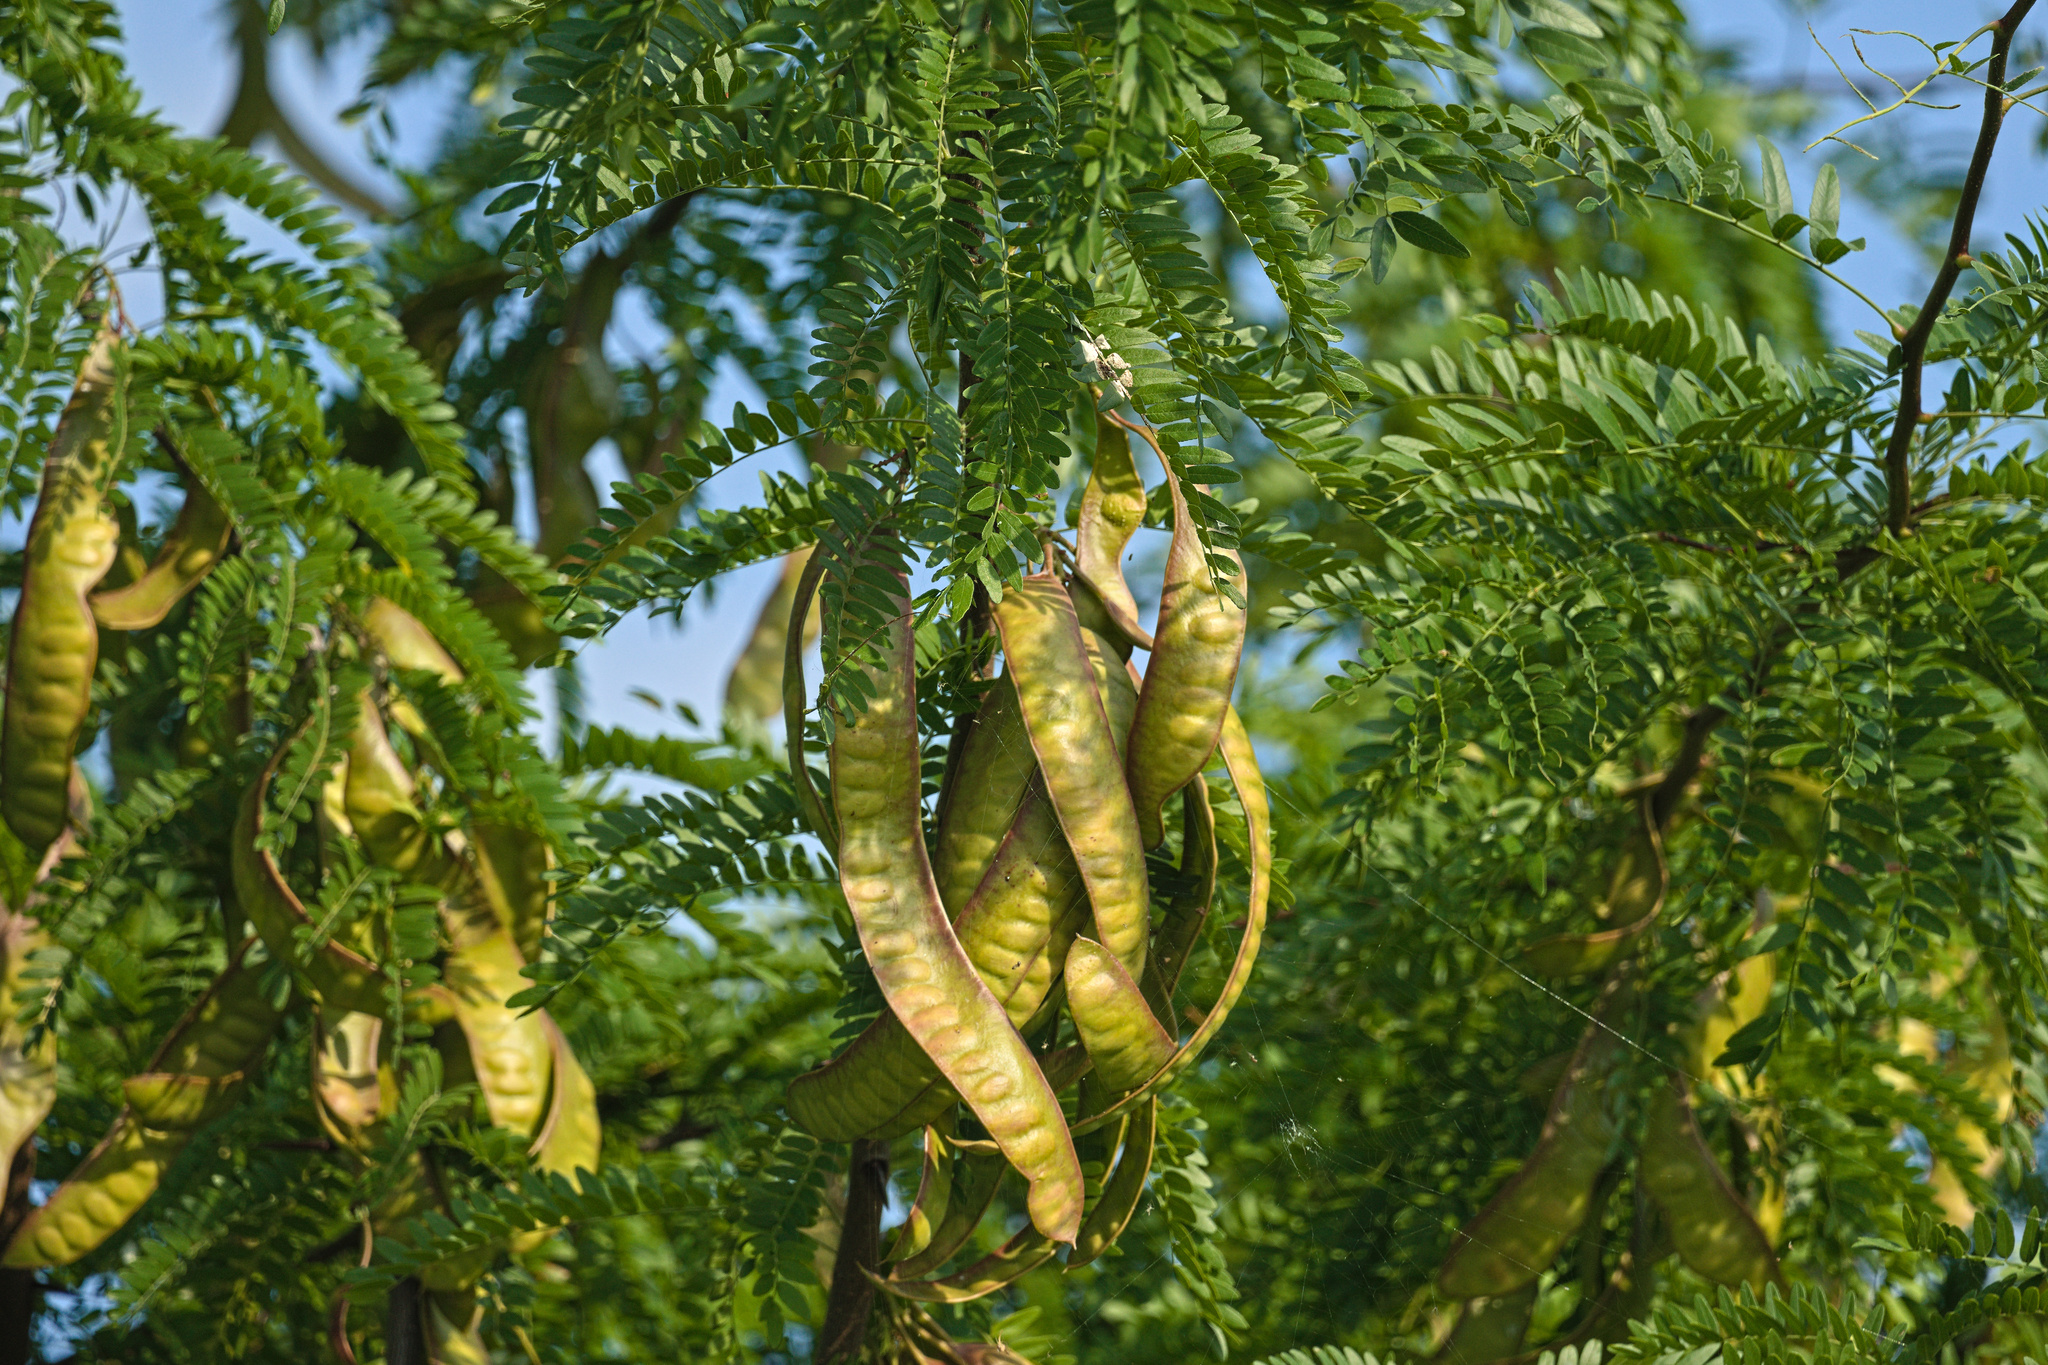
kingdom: Plantae
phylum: Tracheophyta
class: Magnoliopsida
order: Fabales
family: Fabaceae
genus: Gleditsia
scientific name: Gleditsia triacanthos
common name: Common honeylocust
